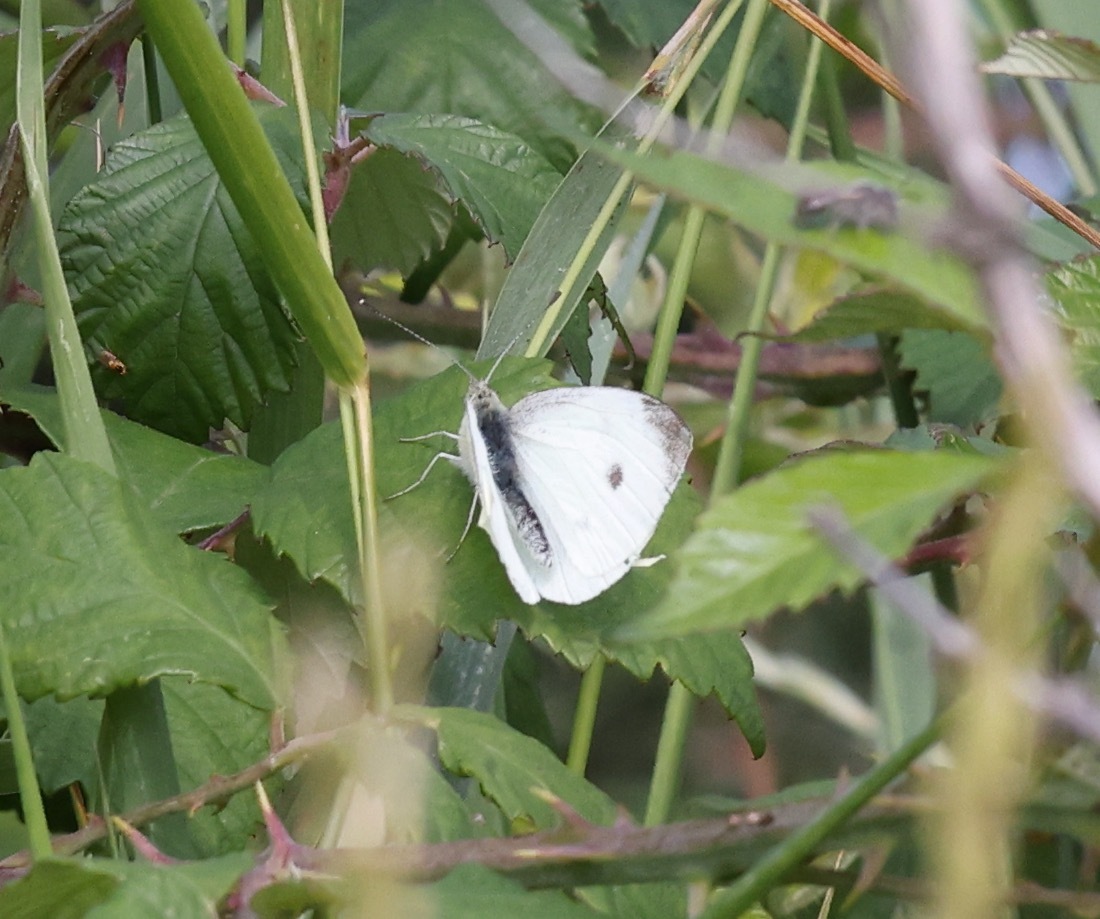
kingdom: Animalia
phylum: Arthropoda
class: Insecta
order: Lepidoptera
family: Pieridae
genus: Pieris
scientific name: Pieris rapae
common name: Small white
